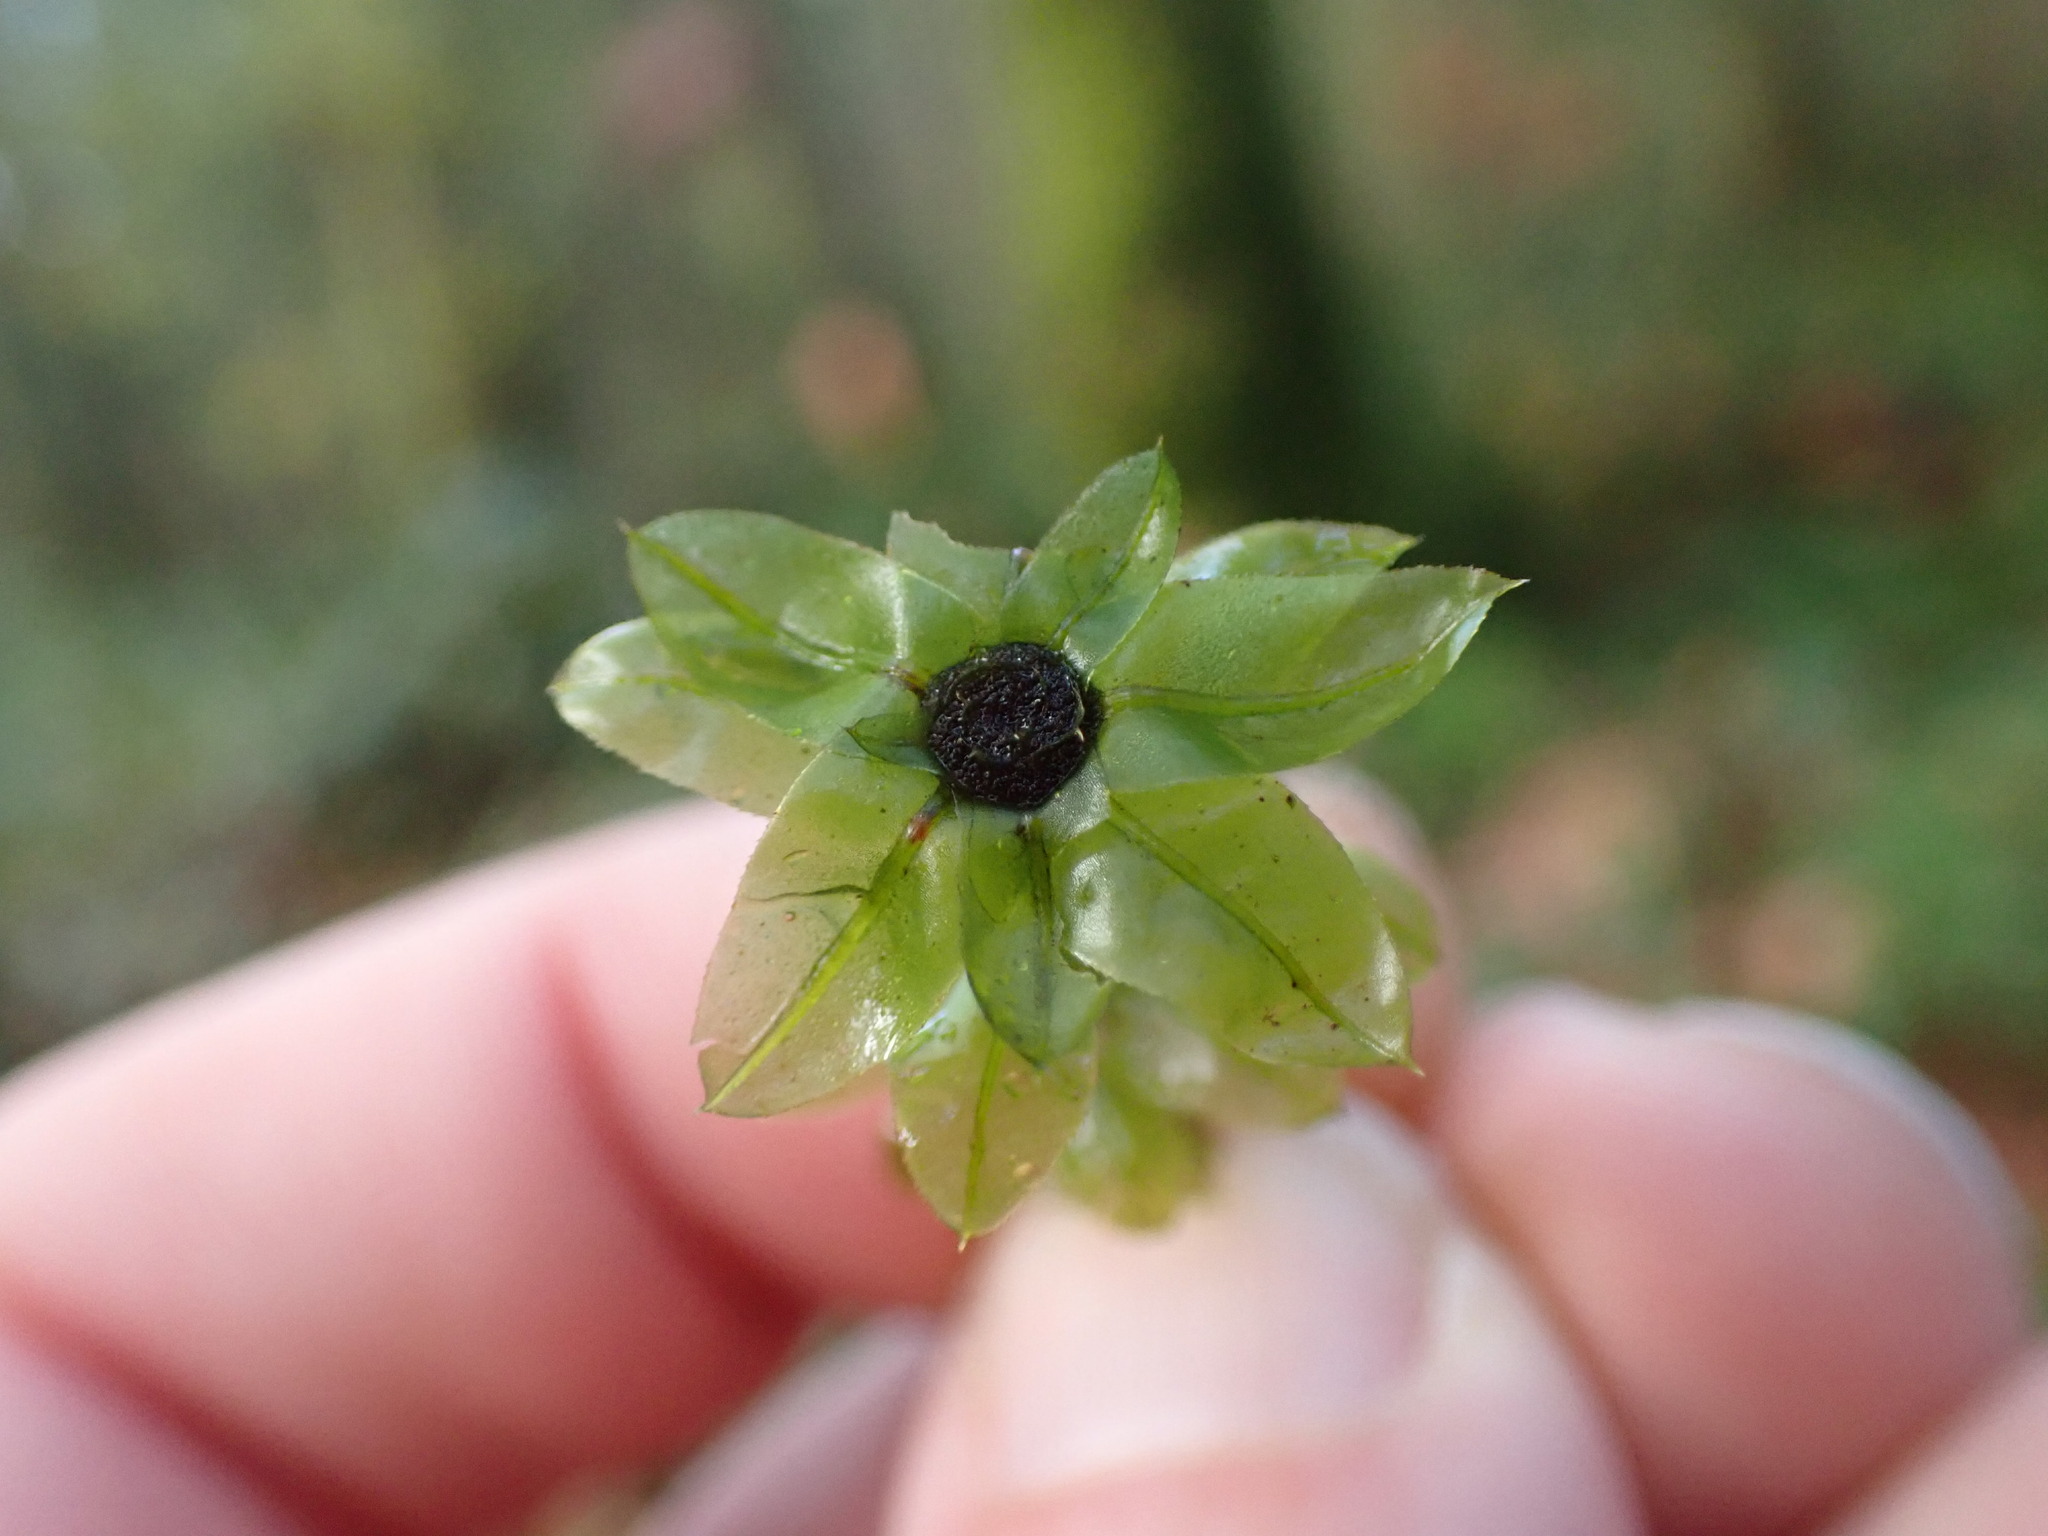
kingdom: Plantae
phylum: Bryophyta
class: Bryopsida
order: Bryales
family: Mniaceae
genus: Plagiomnium
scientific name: Plagiomnium insigne
